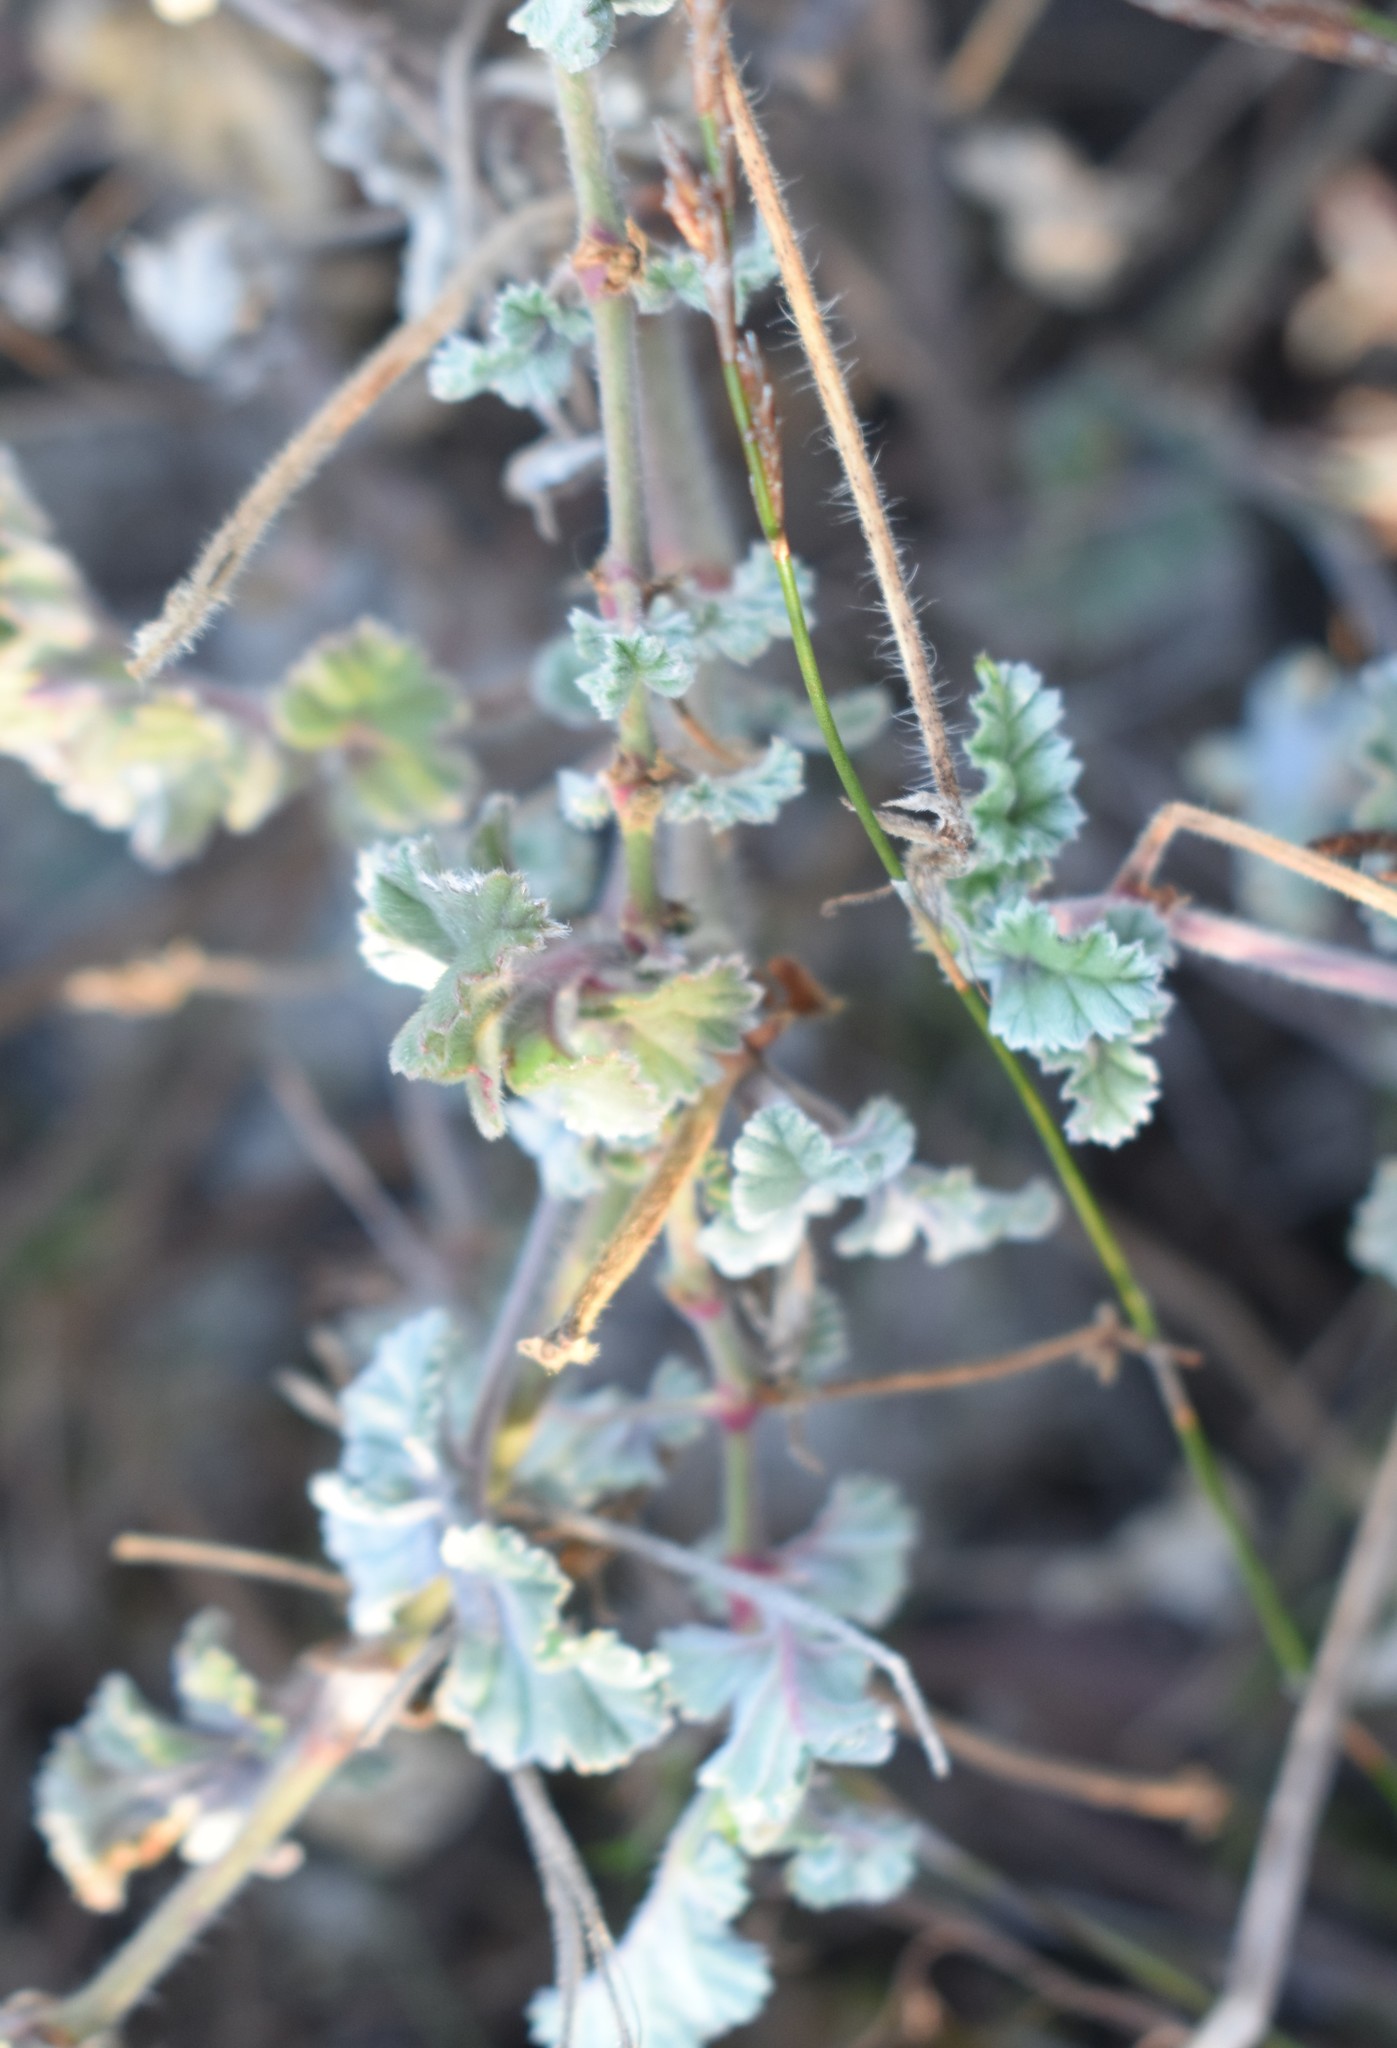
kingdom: Plantae
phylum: Tracheophyta
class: Magnoliopsida
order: Geraniales
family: Geraniaceae
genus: Pelargonium
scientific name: Pelargonium candicans
